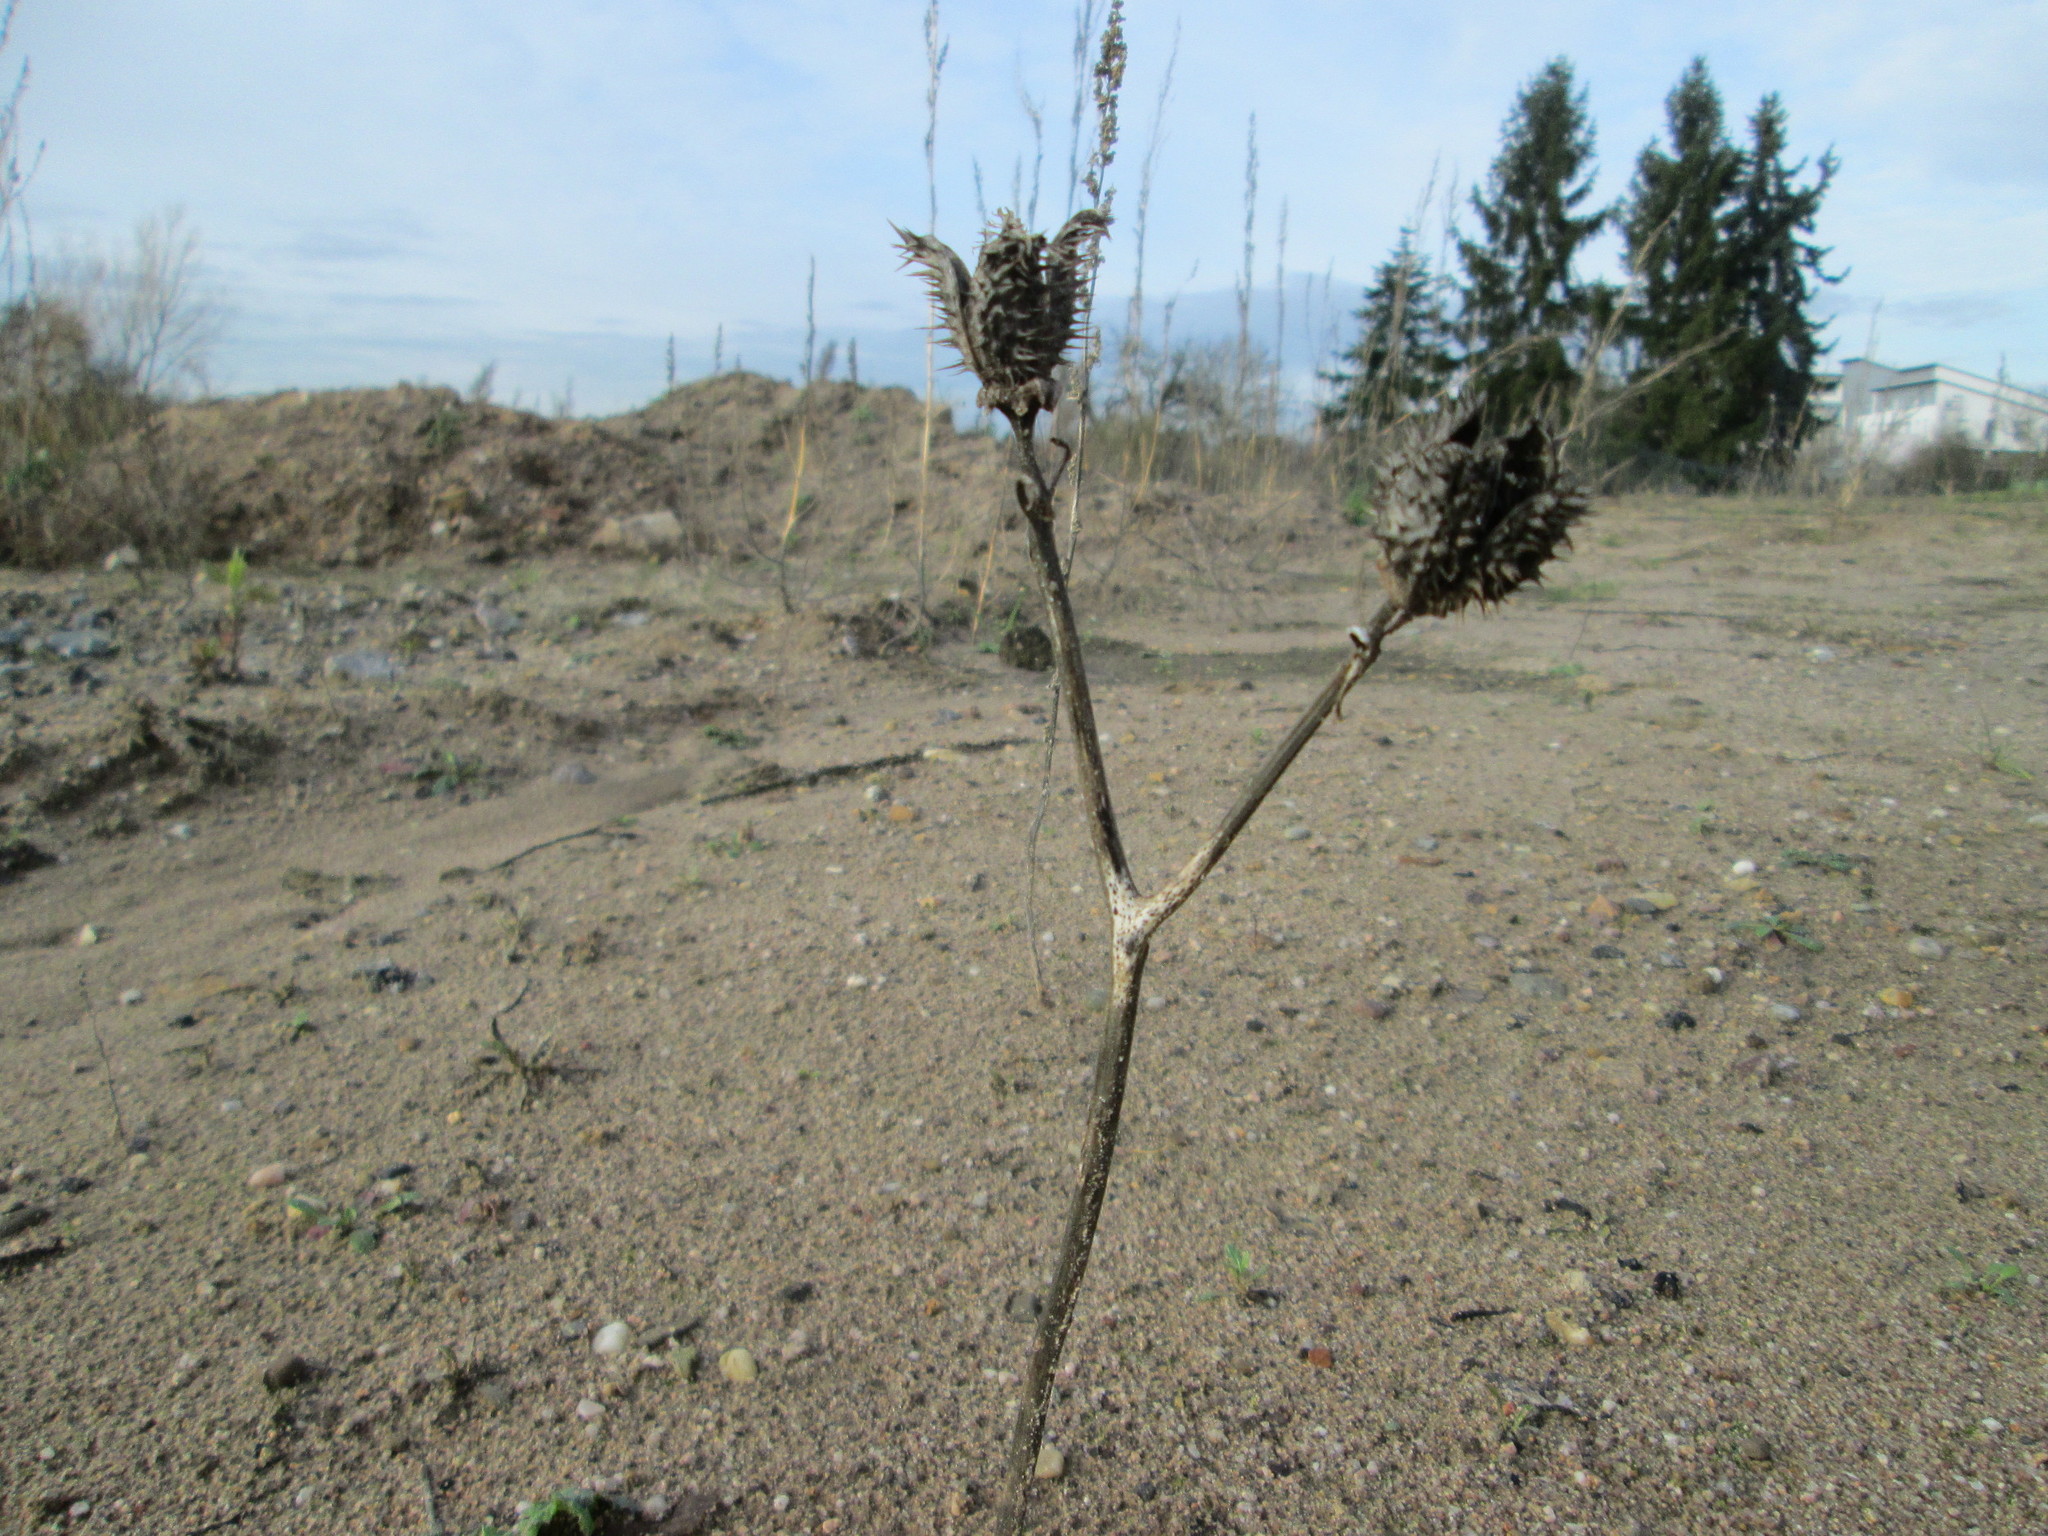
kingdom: Plantae
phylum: Tracheophyta
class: Magnoliopsida
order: Solanales
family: Solanaceae
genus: Datura
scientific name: Datura stramonium
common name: Thorn-apple
